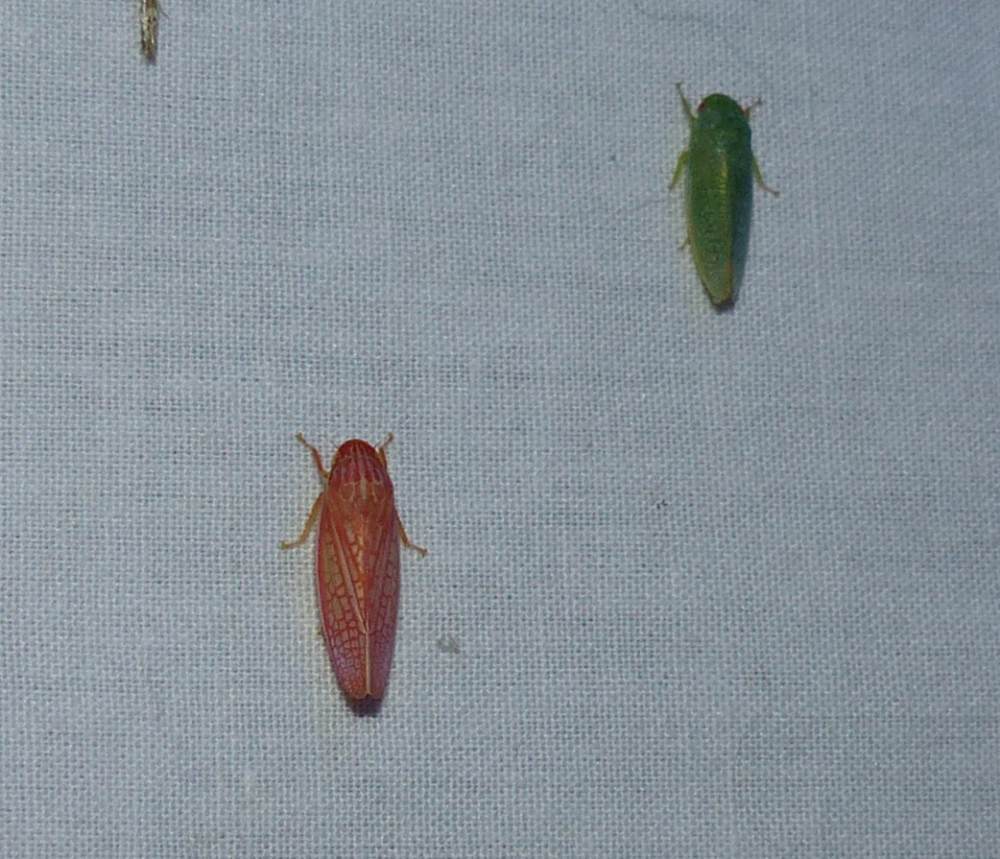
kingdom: Animalia
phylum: Arthropoda
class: Insecta
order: Hemiptera
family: Cicadellidae
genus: Gyponana
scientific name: Gyponana gladia
